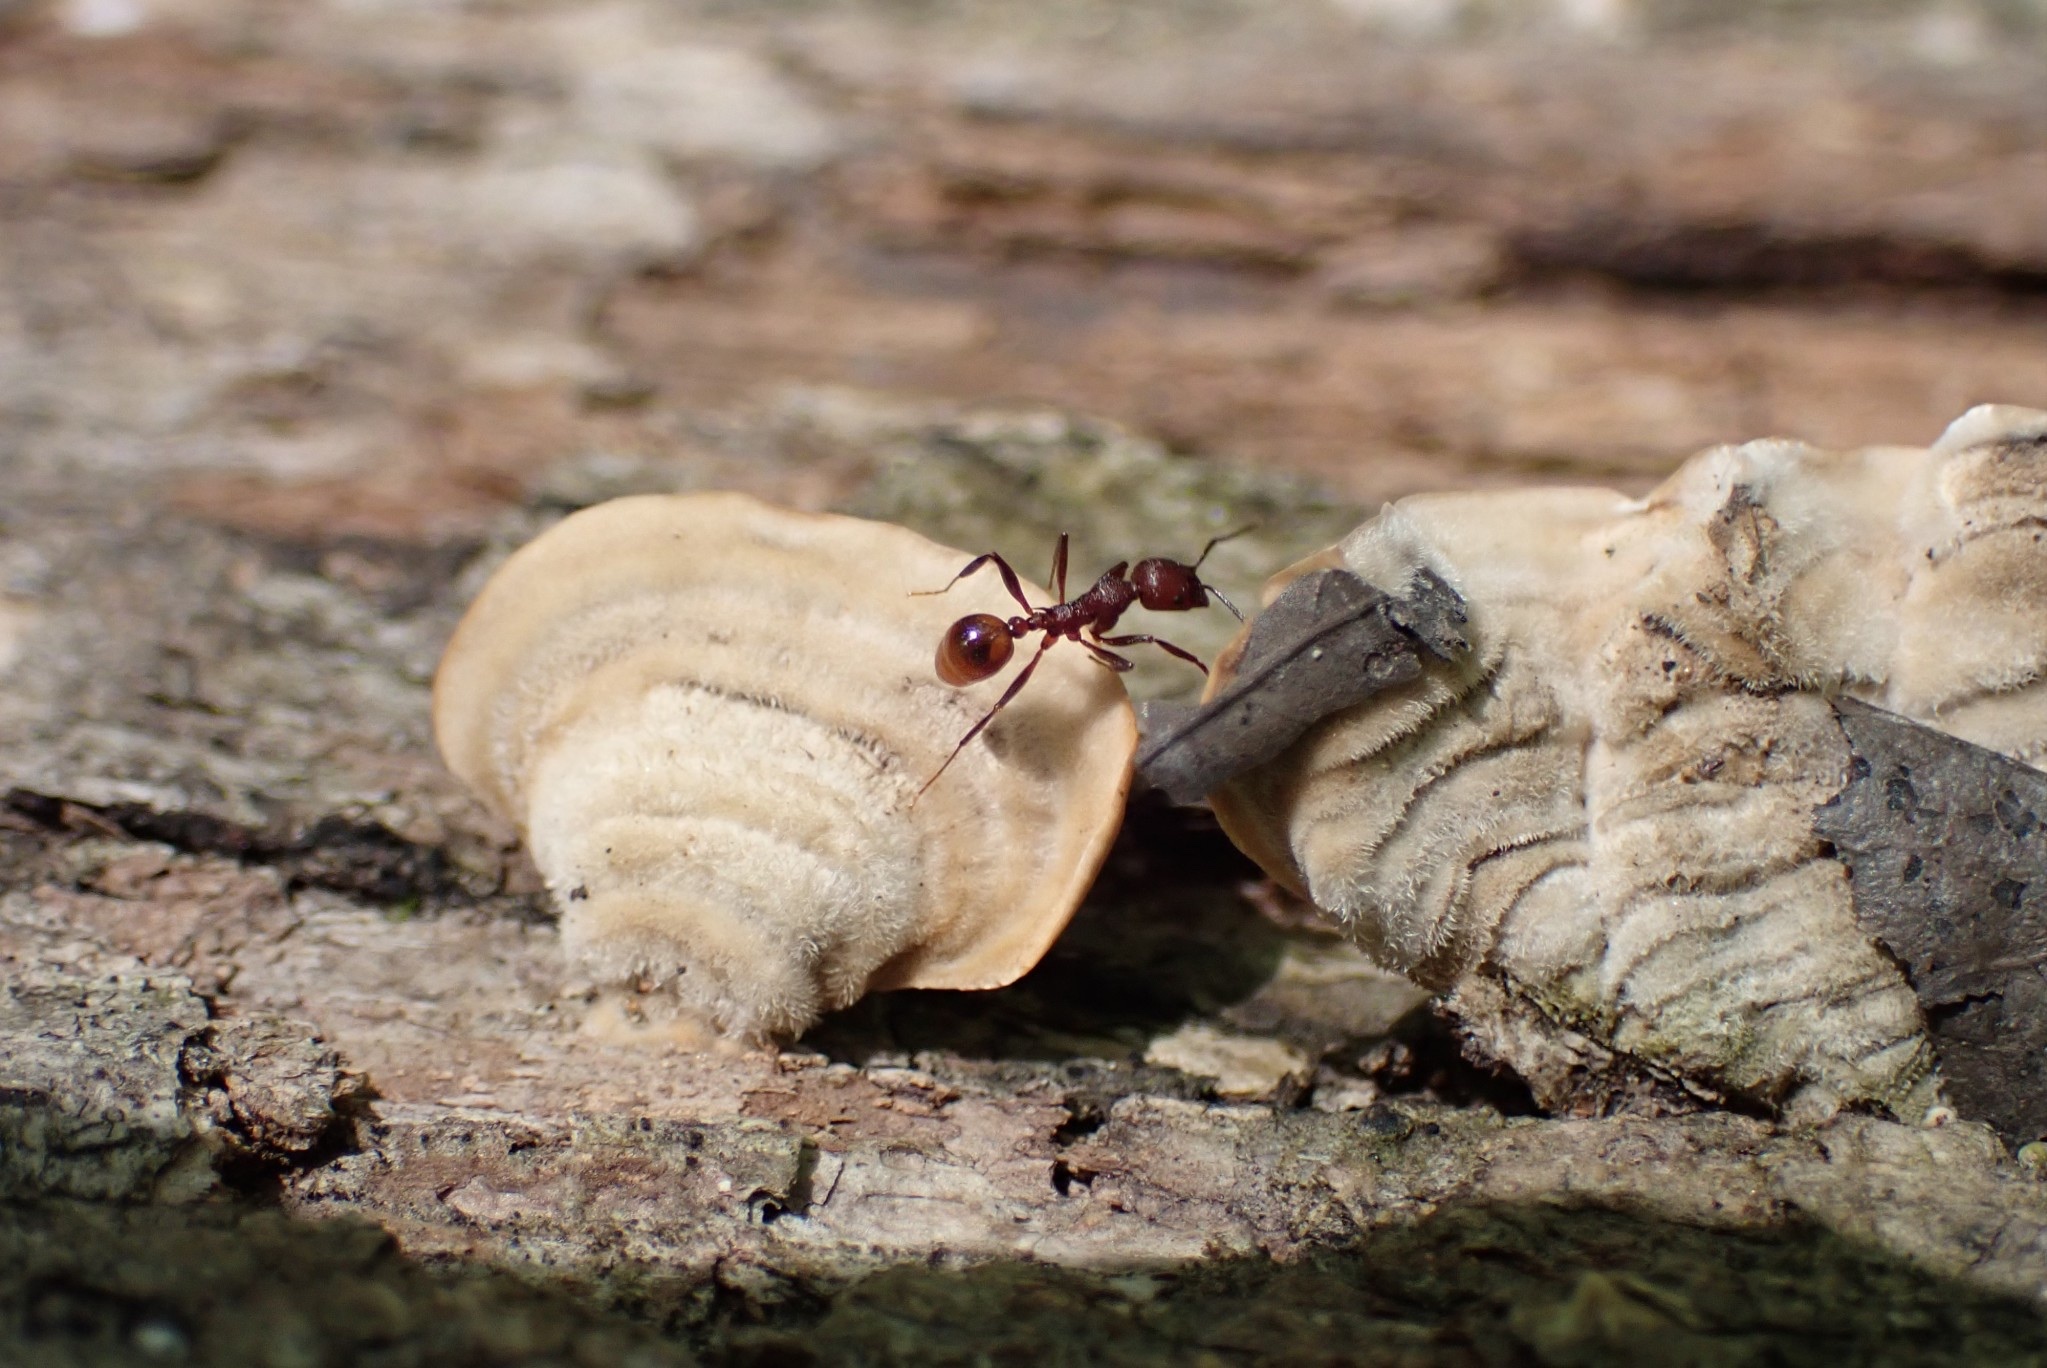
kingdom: Animalia
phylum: Arthropoda
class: Insecta
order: Hymenoptera
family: Formicidae
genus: Aphaenogaster
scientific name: Aphaenogaster tennesseensis
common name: Tennessee thread-waisted ant
